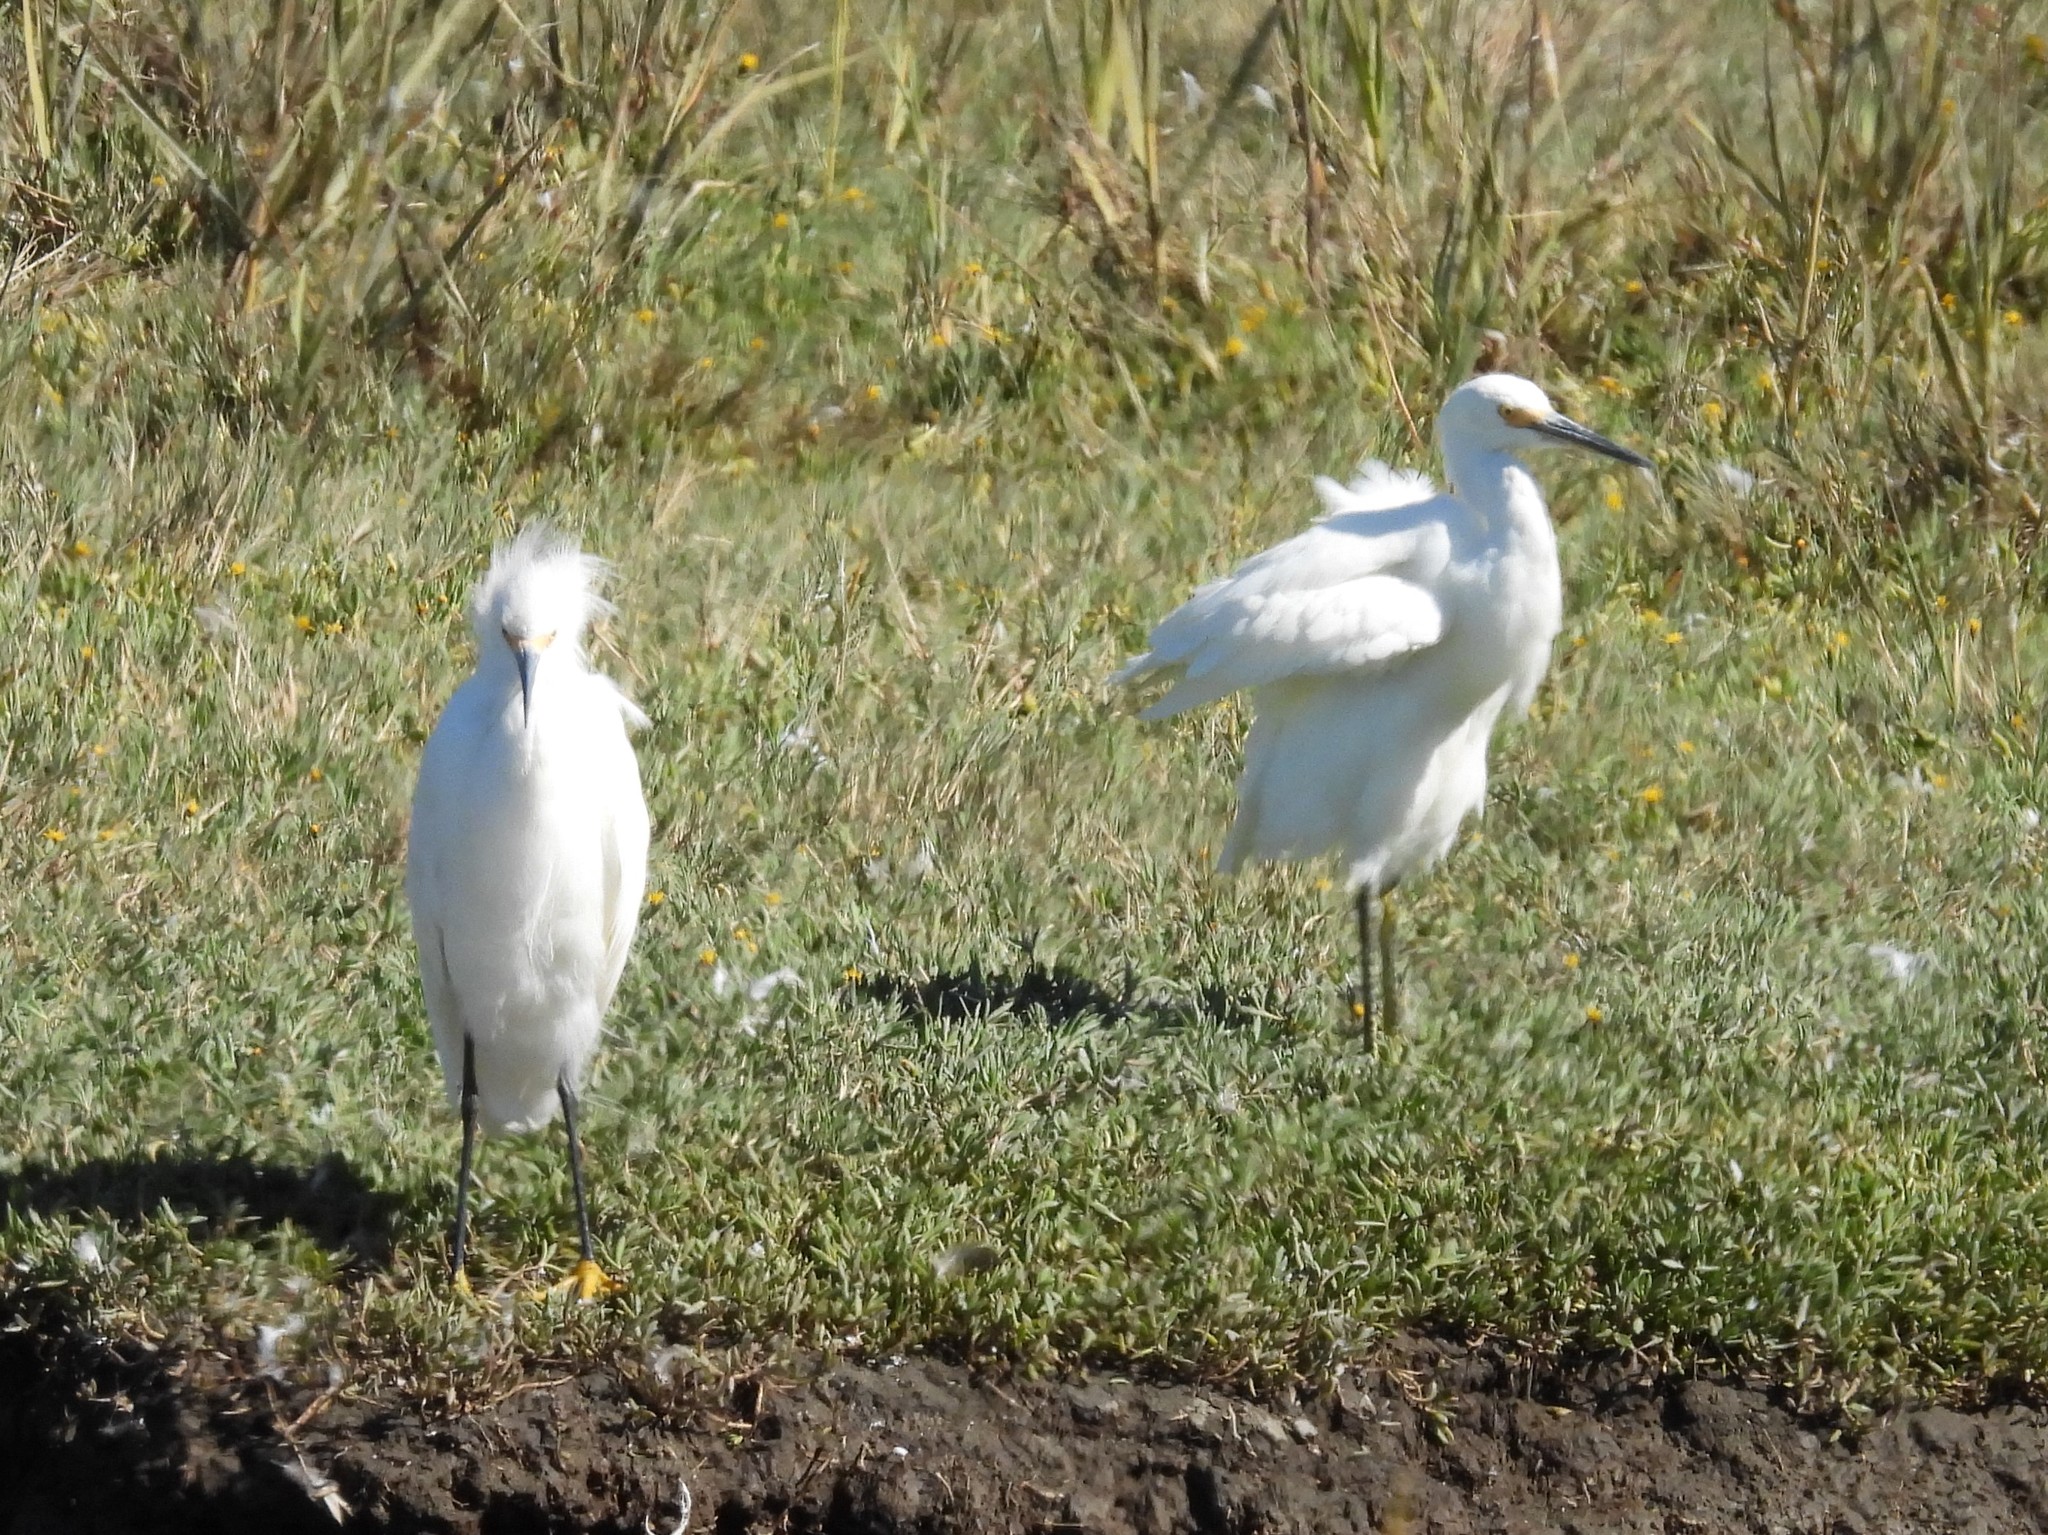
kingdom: Animalia
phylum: Chordata
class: Aves
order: Pelecaniformes
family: Ardeidae
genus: Egretta
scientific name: Egretta thula
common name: Snowy egret
